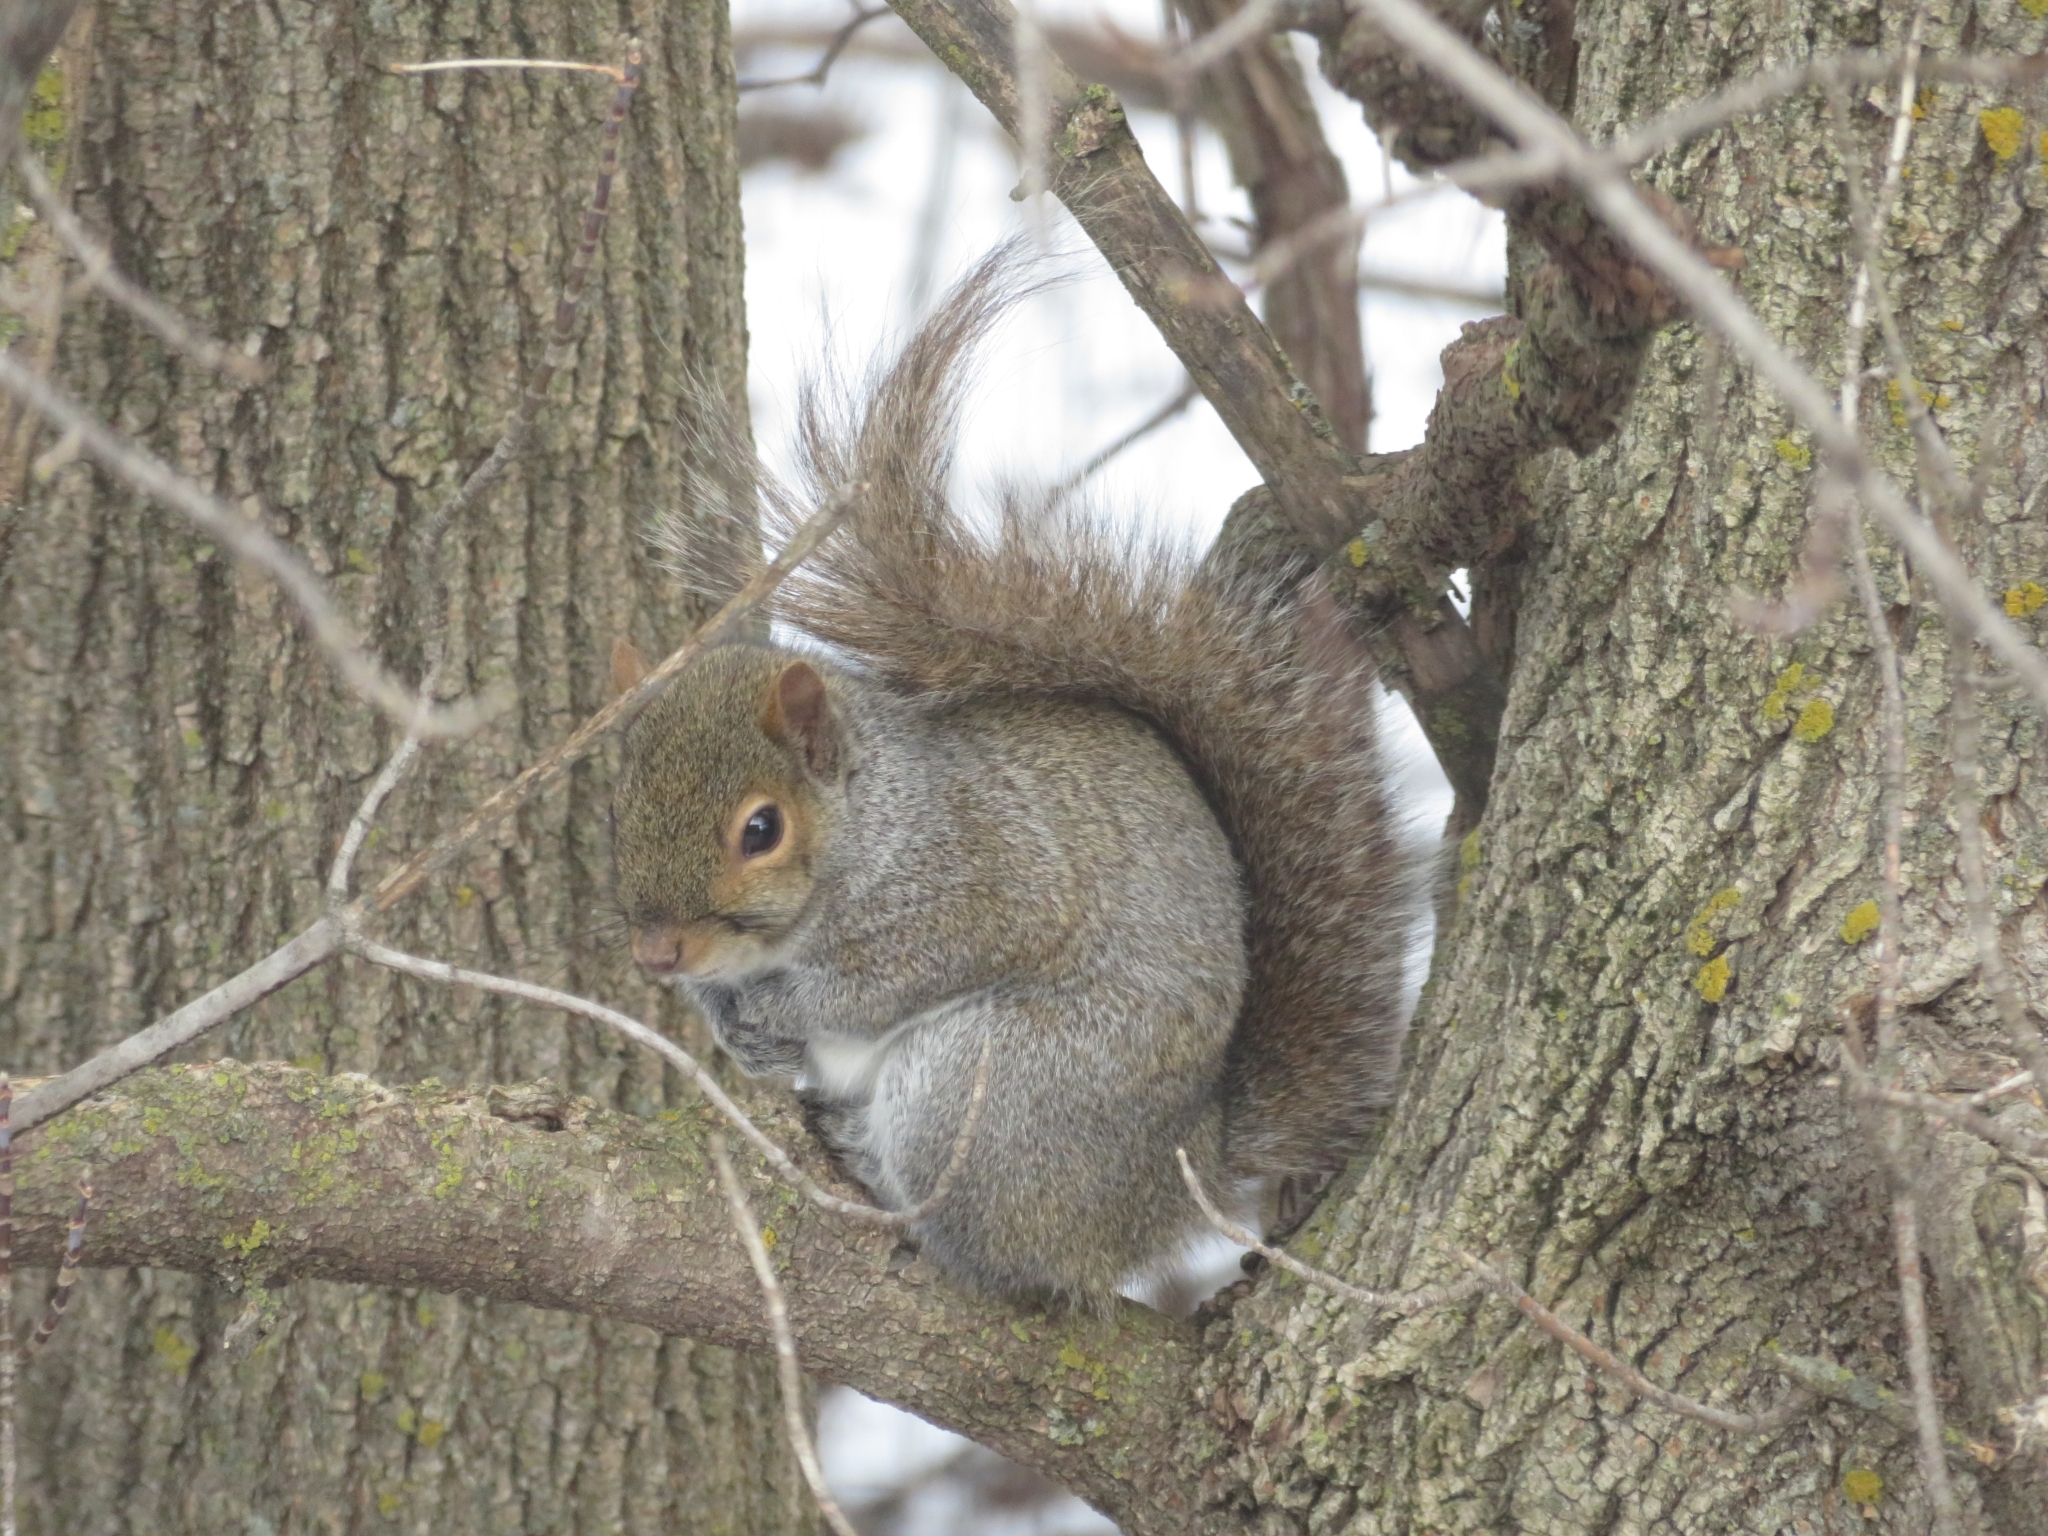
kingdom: Animalia
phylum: Chordata
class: Mammalia
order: Rodentia
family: Sciuridae
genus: Sciurus
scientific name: Sciurus carolinensis
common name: Eastern gray squirrel
